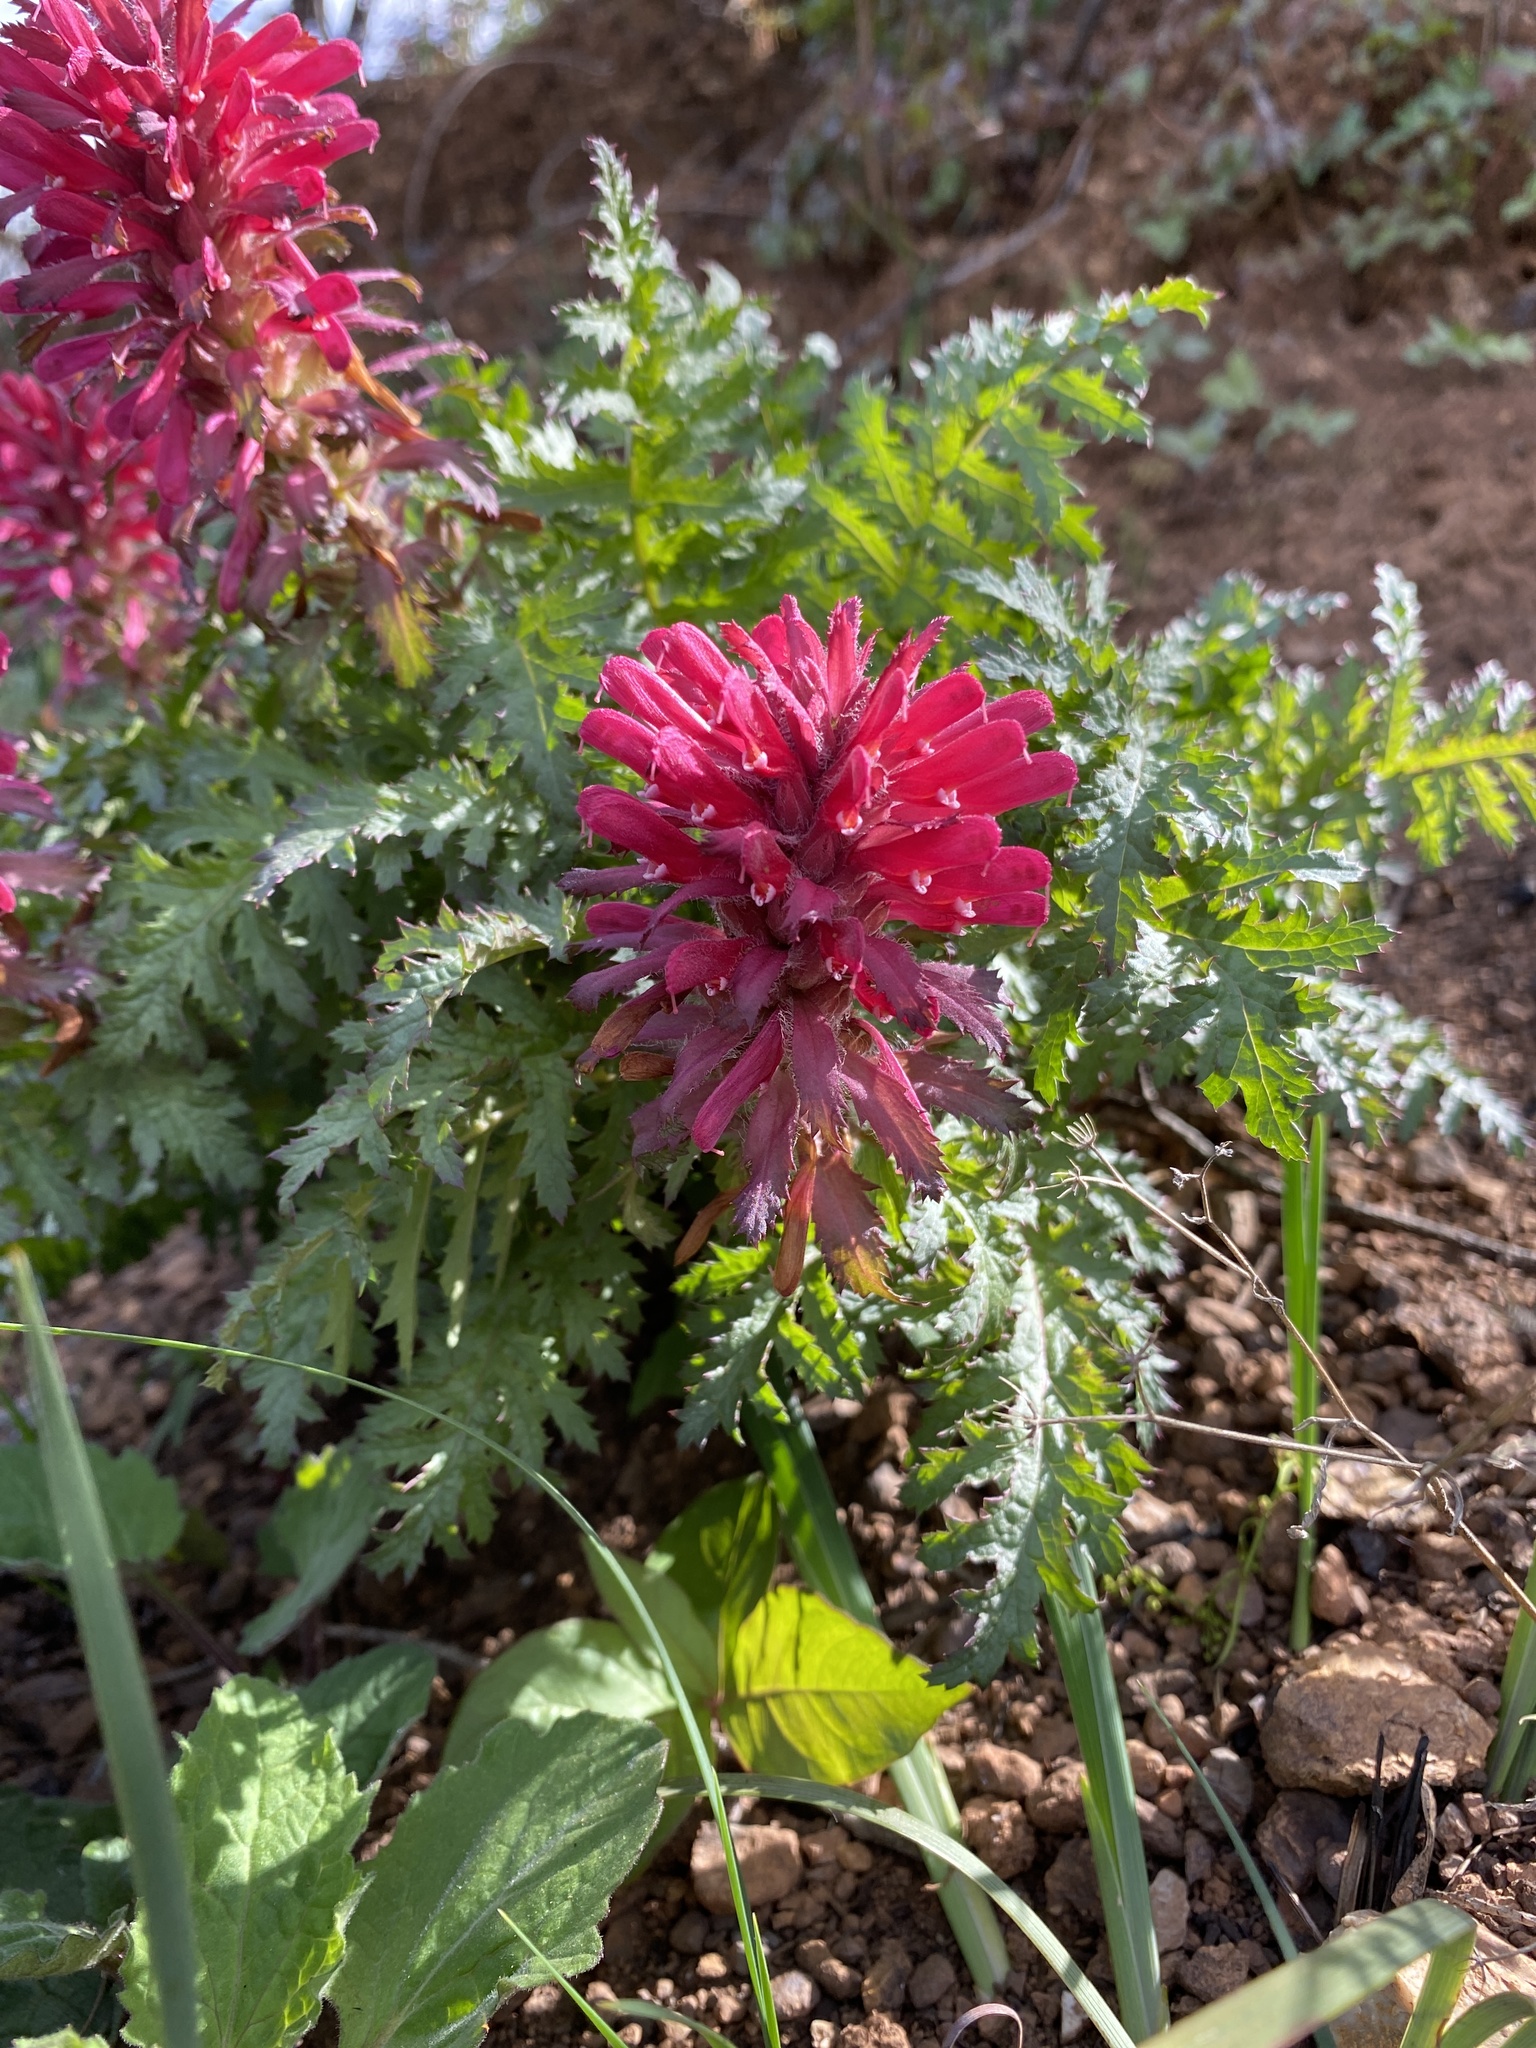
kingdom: Plantae
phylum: Tracheophyta
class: Magnoliopsida
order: Lamiales
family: Orobanchaceae
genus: Pedicularis
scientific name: Pedicularis densiflora
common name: Indian warrior
